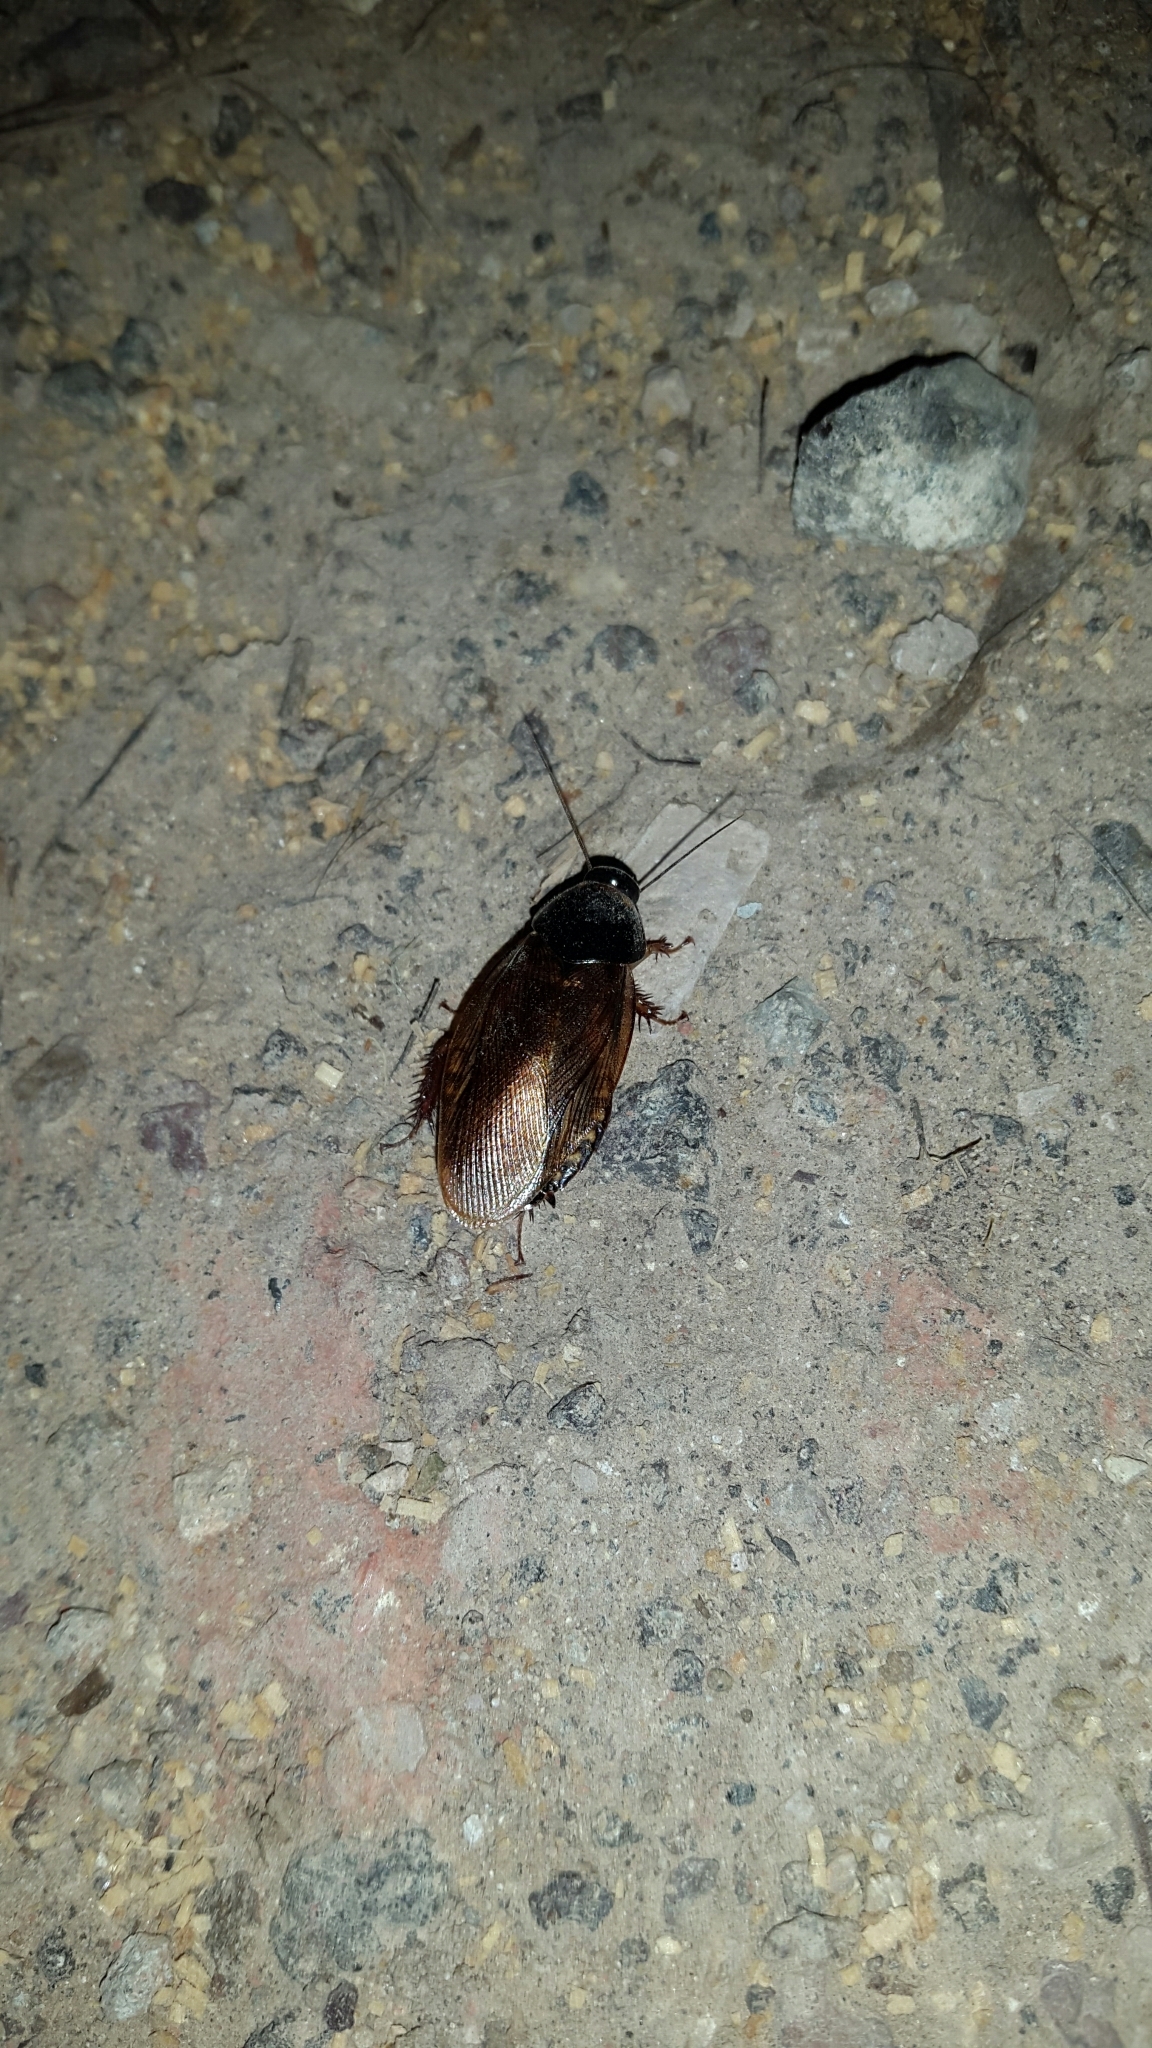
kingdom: Animalia
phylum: Arthropoda
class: Insecta
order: Blattodea
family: Blaberidae
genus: Pycnoscelus
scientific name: Pycnoscelus surinamensis
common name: Surinam cockroach
